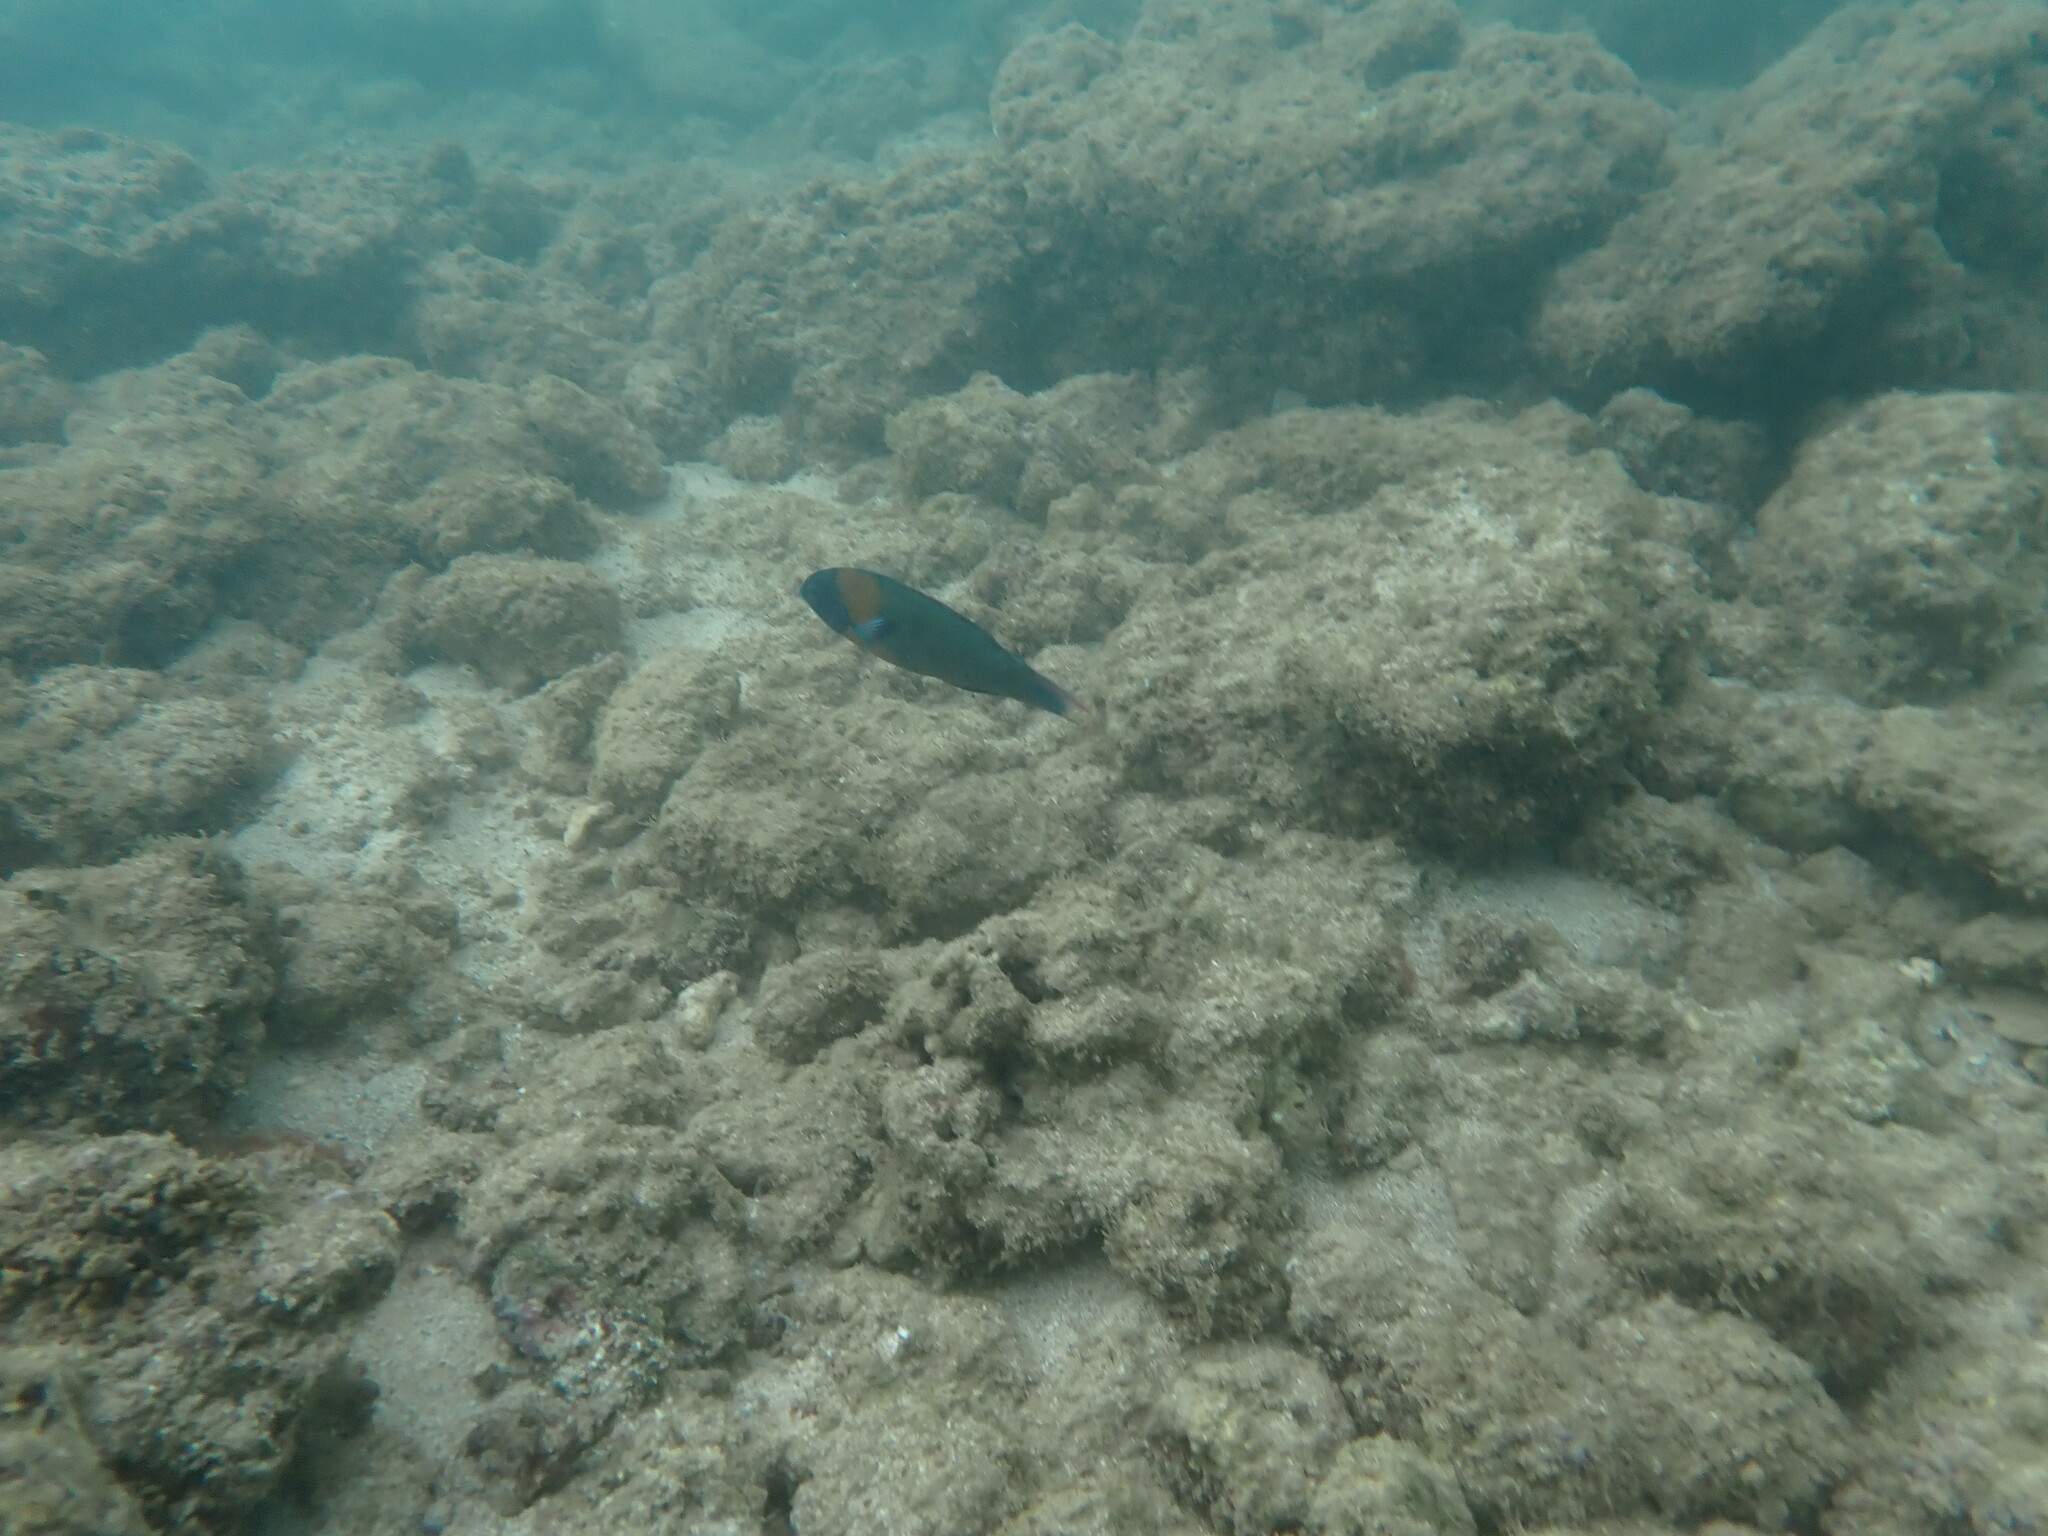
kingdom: Animalia
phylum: Chordata
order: Perciformes
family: Labridae
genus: Thalassoma
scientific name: Thalassoma duperrey
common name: Saddle wrasse
